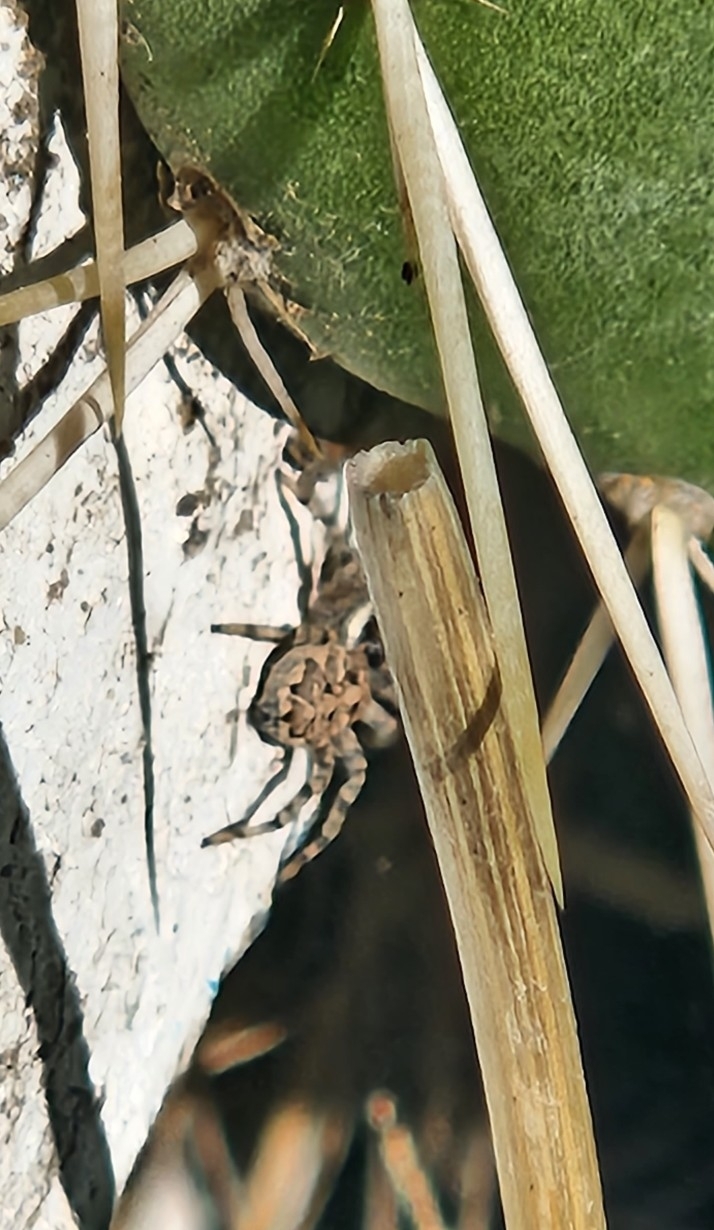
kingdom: Animalia
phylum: Arthropoda
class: Arachnida
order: Araneae
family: Salticidae
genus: Menemerus
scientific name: Menemerus semilimbatus
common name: Jumping spider
